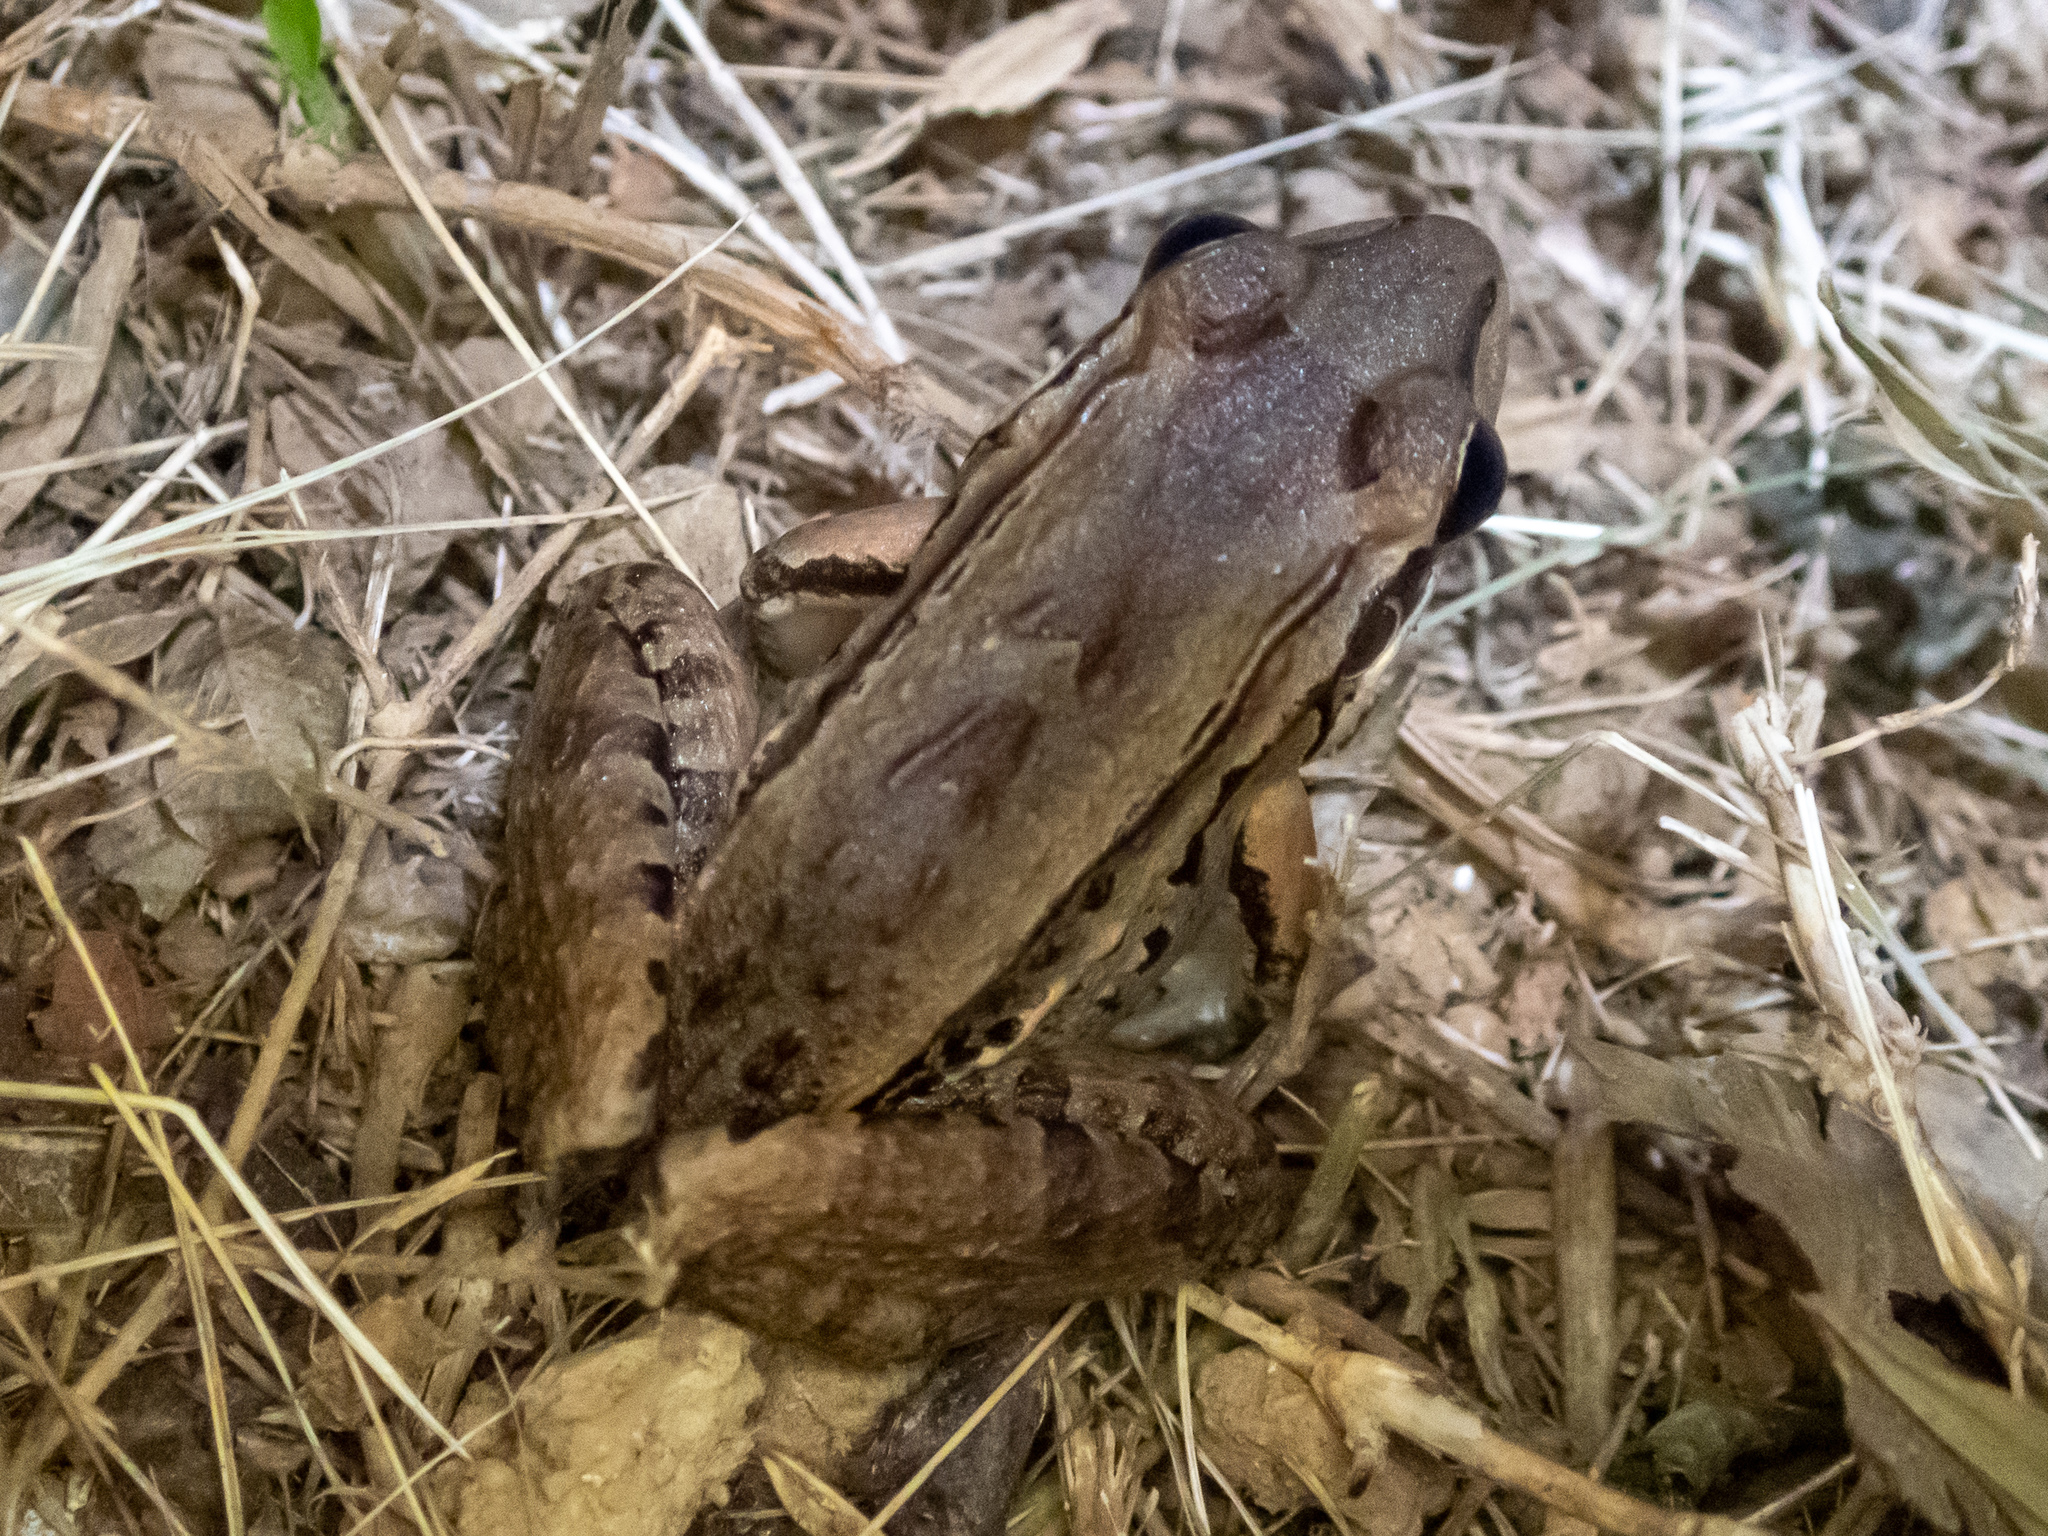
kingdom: Animalia
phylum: Chordata
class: Amphibia
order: Anura
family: Leptodactylidae
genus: Leptodactylus
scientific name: Leptodactylus insularum
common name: San miguel island frog
